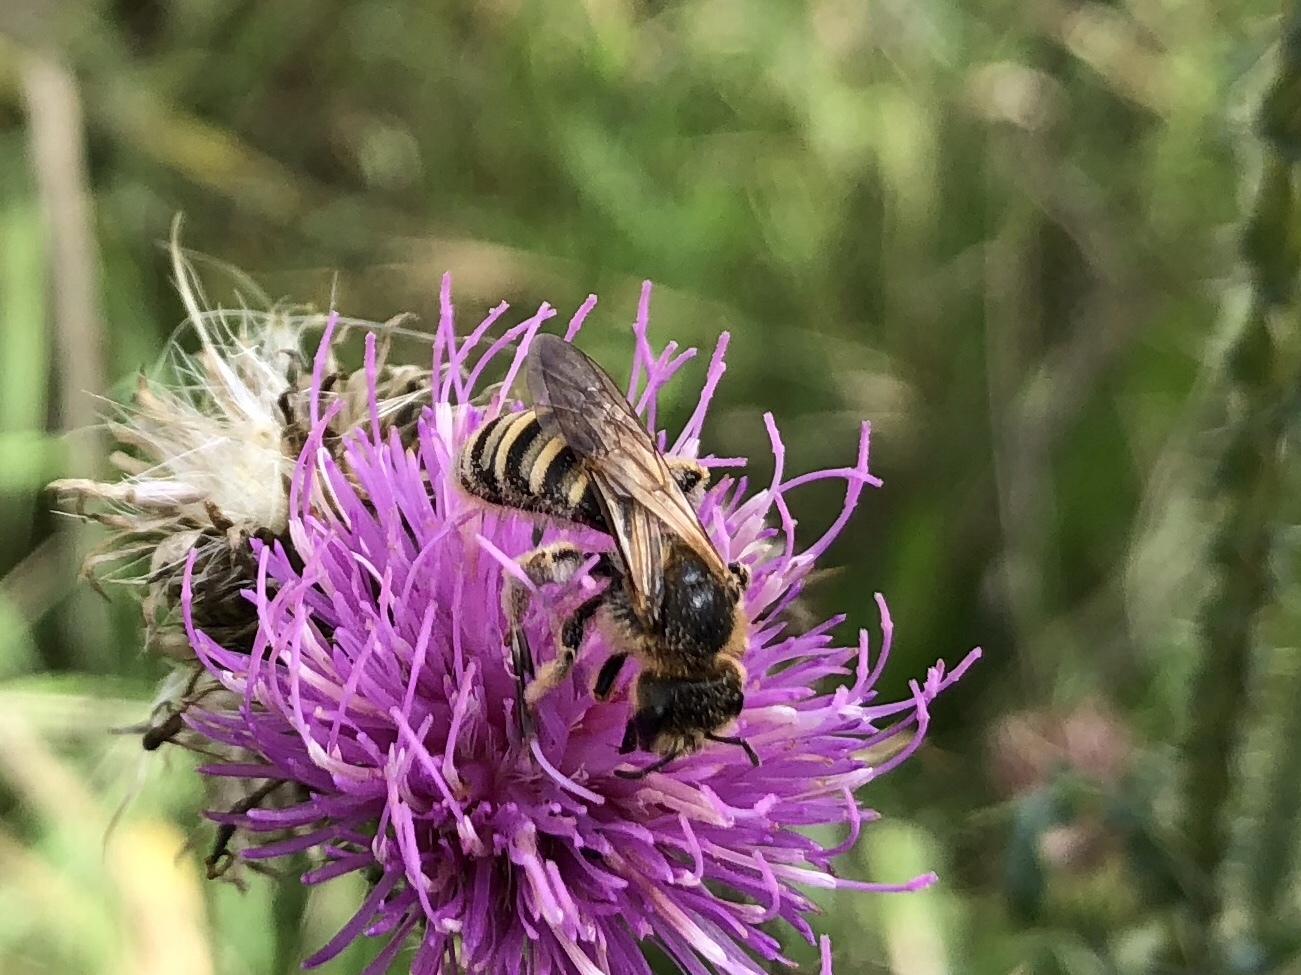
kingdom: Animalia
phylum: Arthropoda
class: Insecta
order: Hymenoptera
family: Halictidae
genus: Halictus
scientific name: Halictus scabiosae
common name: Great banded furrow bee
